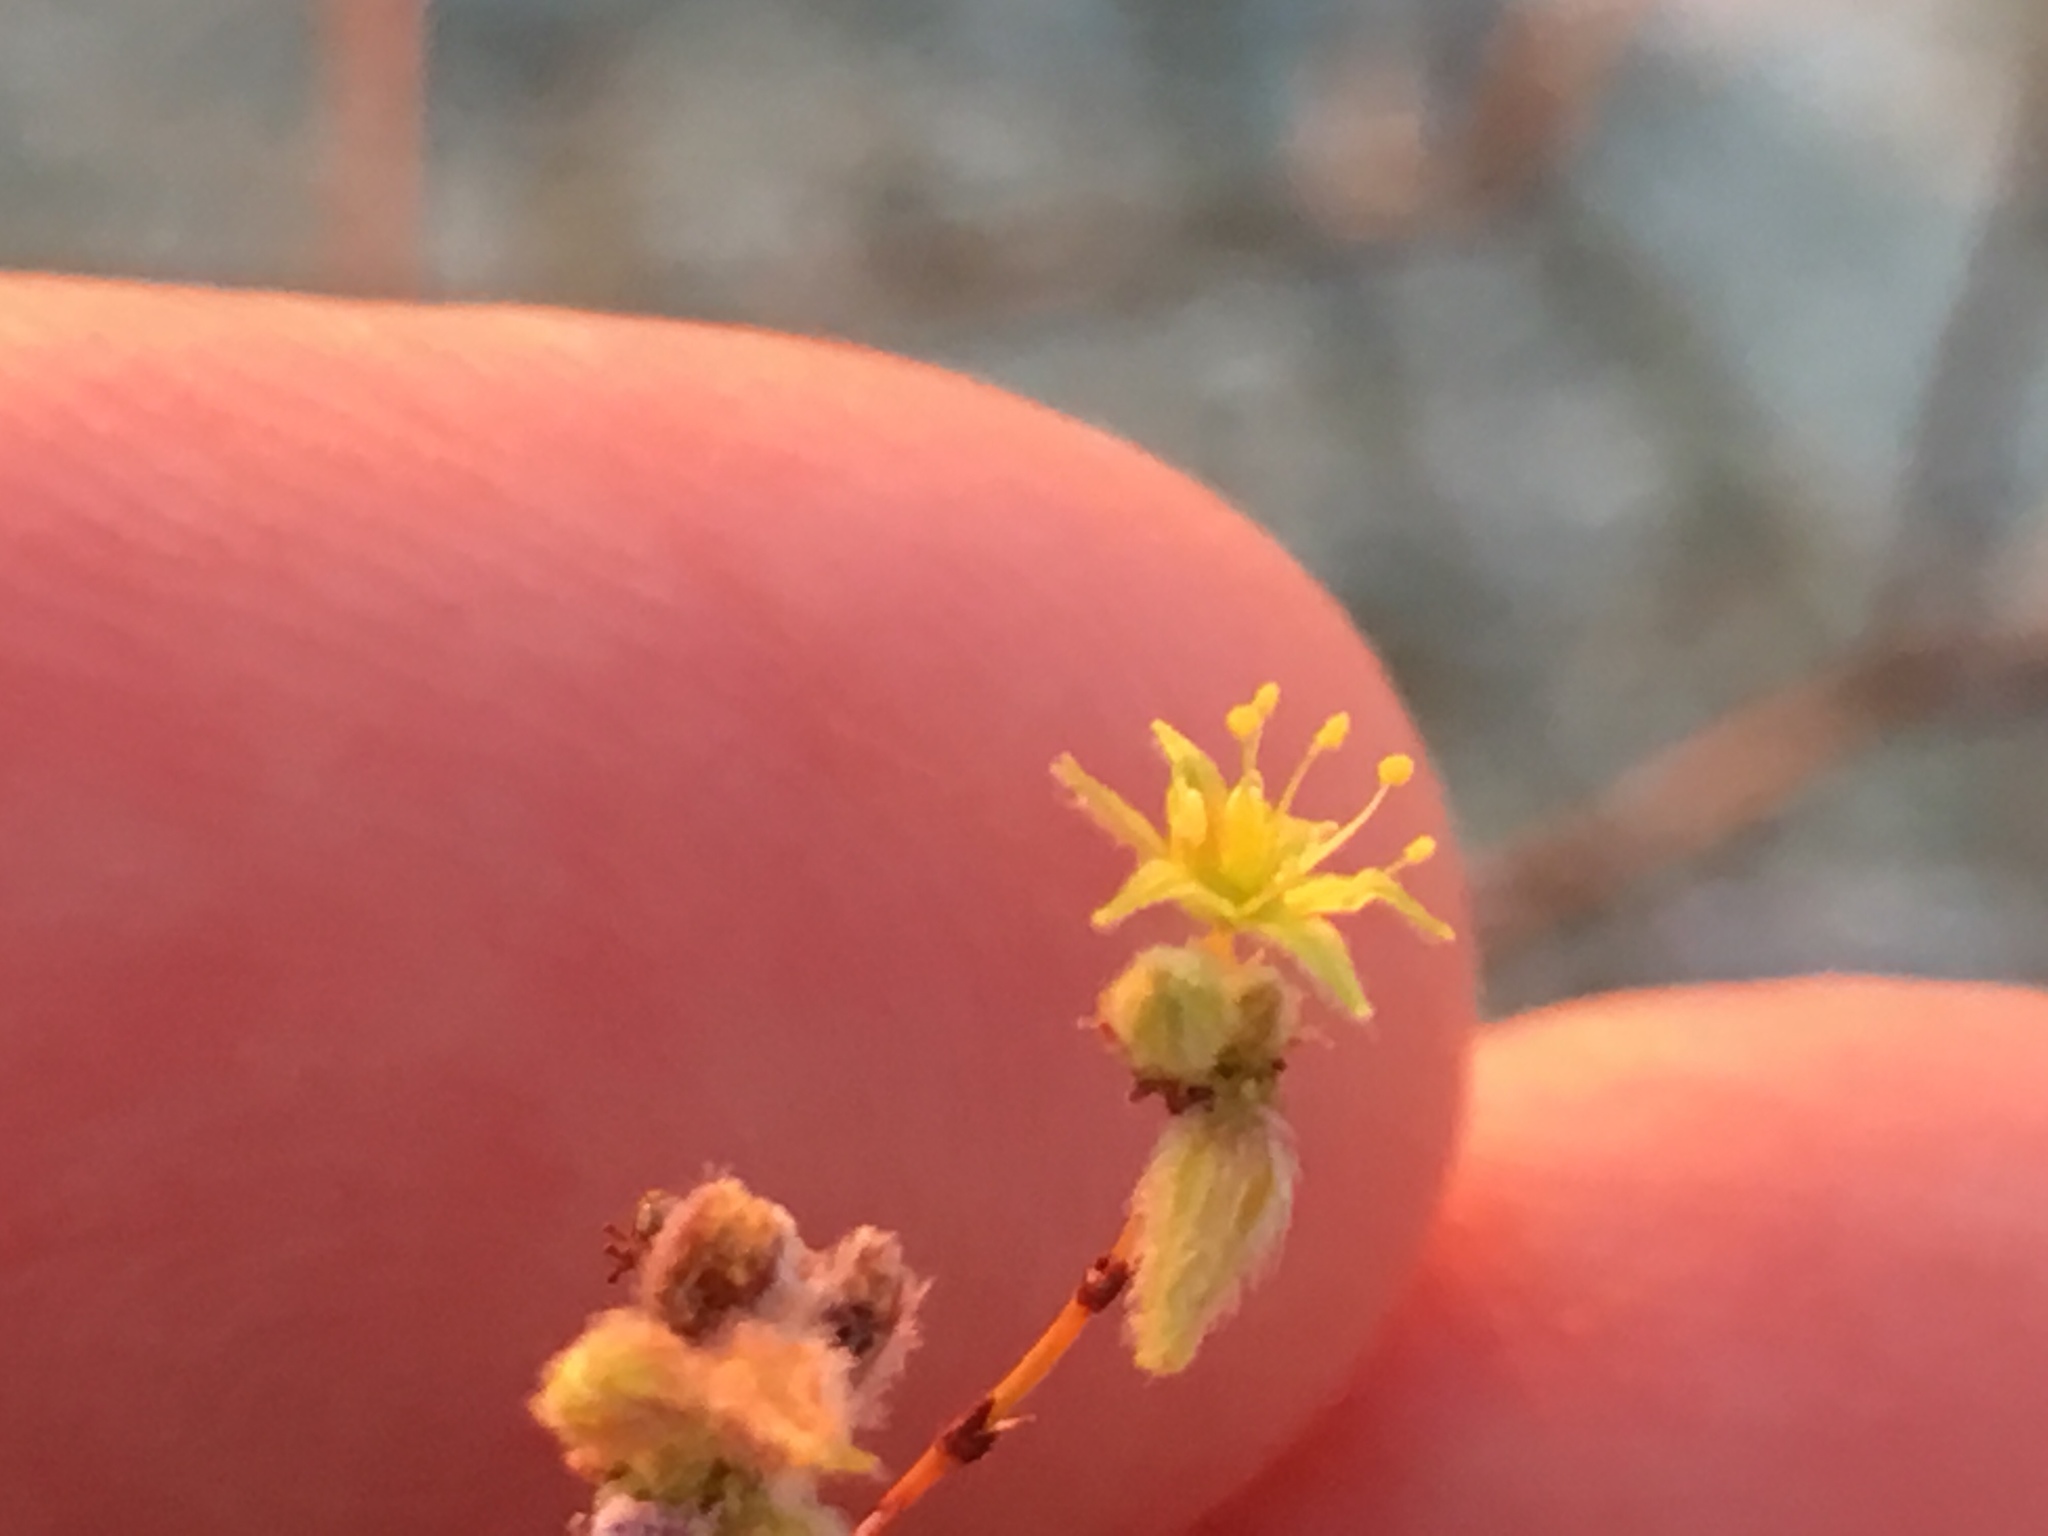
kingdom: Plantae
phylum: Tracheophyta
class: Magnoliopsida
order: Caryophyllales
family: Polygonaceae
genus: Eriogonum
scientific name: Eriogonum inflatum
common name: Desert trumpet
